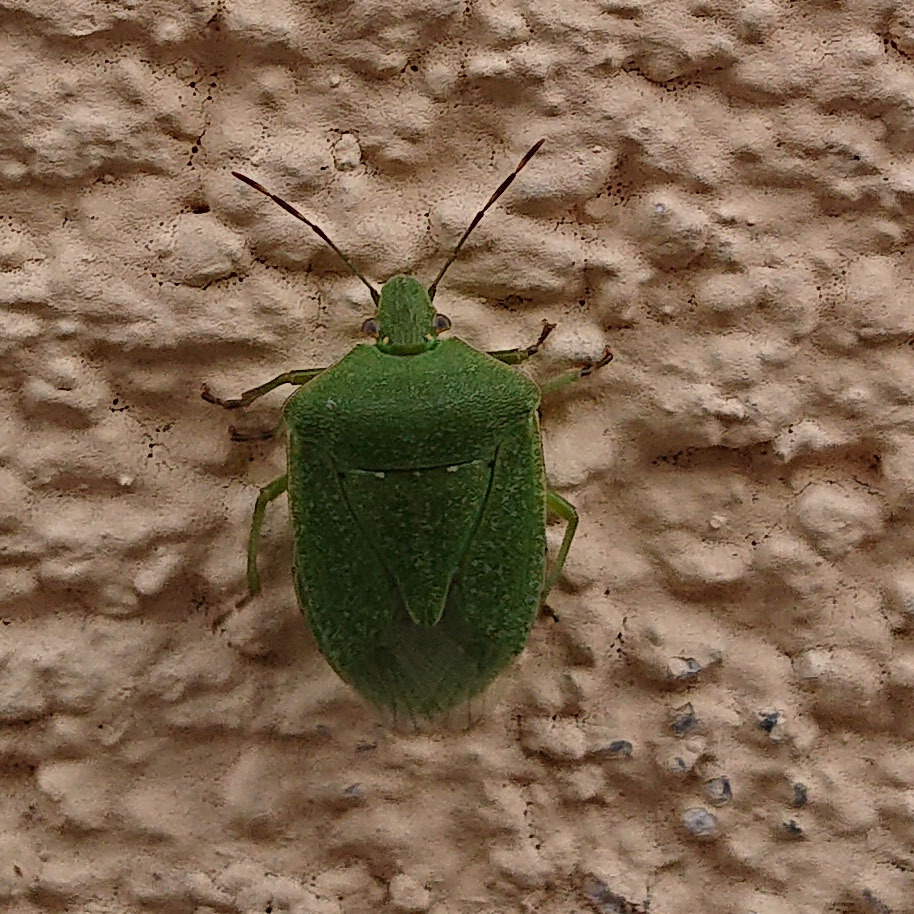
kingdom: Animalia
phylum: Arthropoda
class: Insecta
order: Hemiptera
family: Pentatomidae
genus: Nezara
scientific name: Nezara viridula
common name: Southern green stink bug
